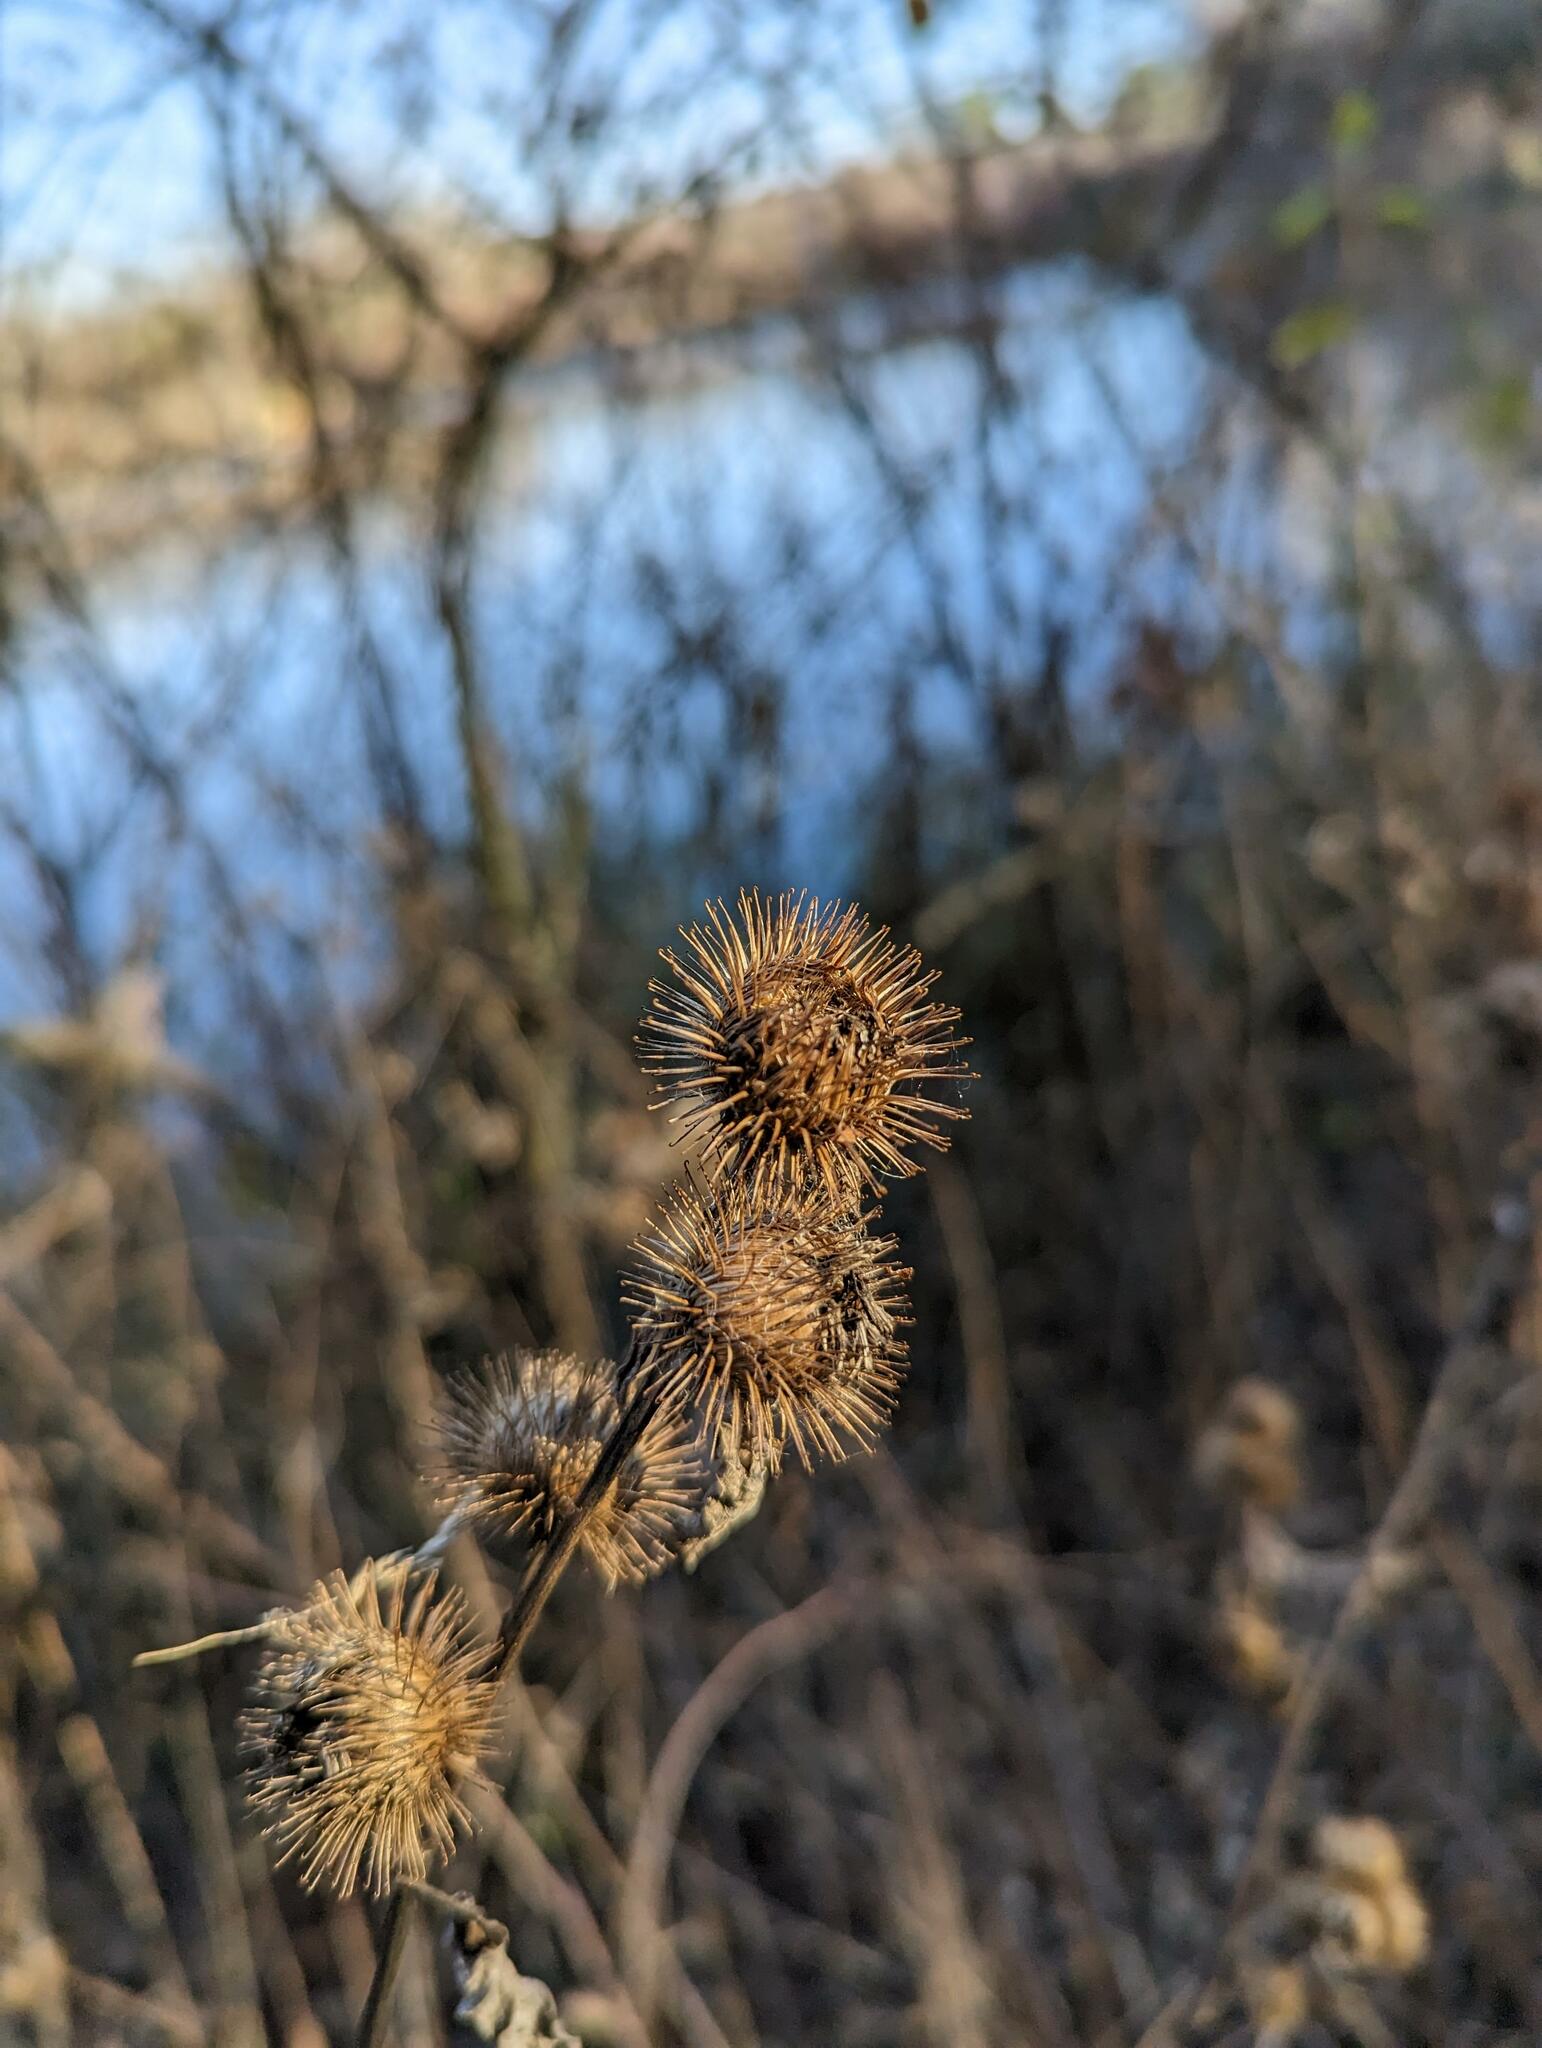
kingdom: Plantae
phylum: Tracheophyta
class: Magnoliopsida
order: Asterales
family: Asteraceae
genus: Arctium
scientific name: Arctium minus
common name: Lesser burdock
